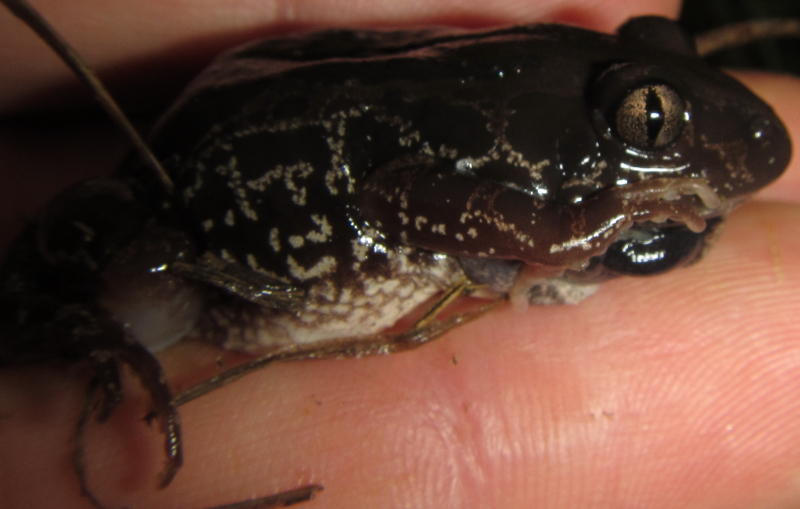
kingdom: Animalia
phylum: Chordata
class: Amphibia
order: Anura
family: Hyperoliidae
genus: Kassina
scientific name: Kassina senegalensis
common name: Senegal land frog
